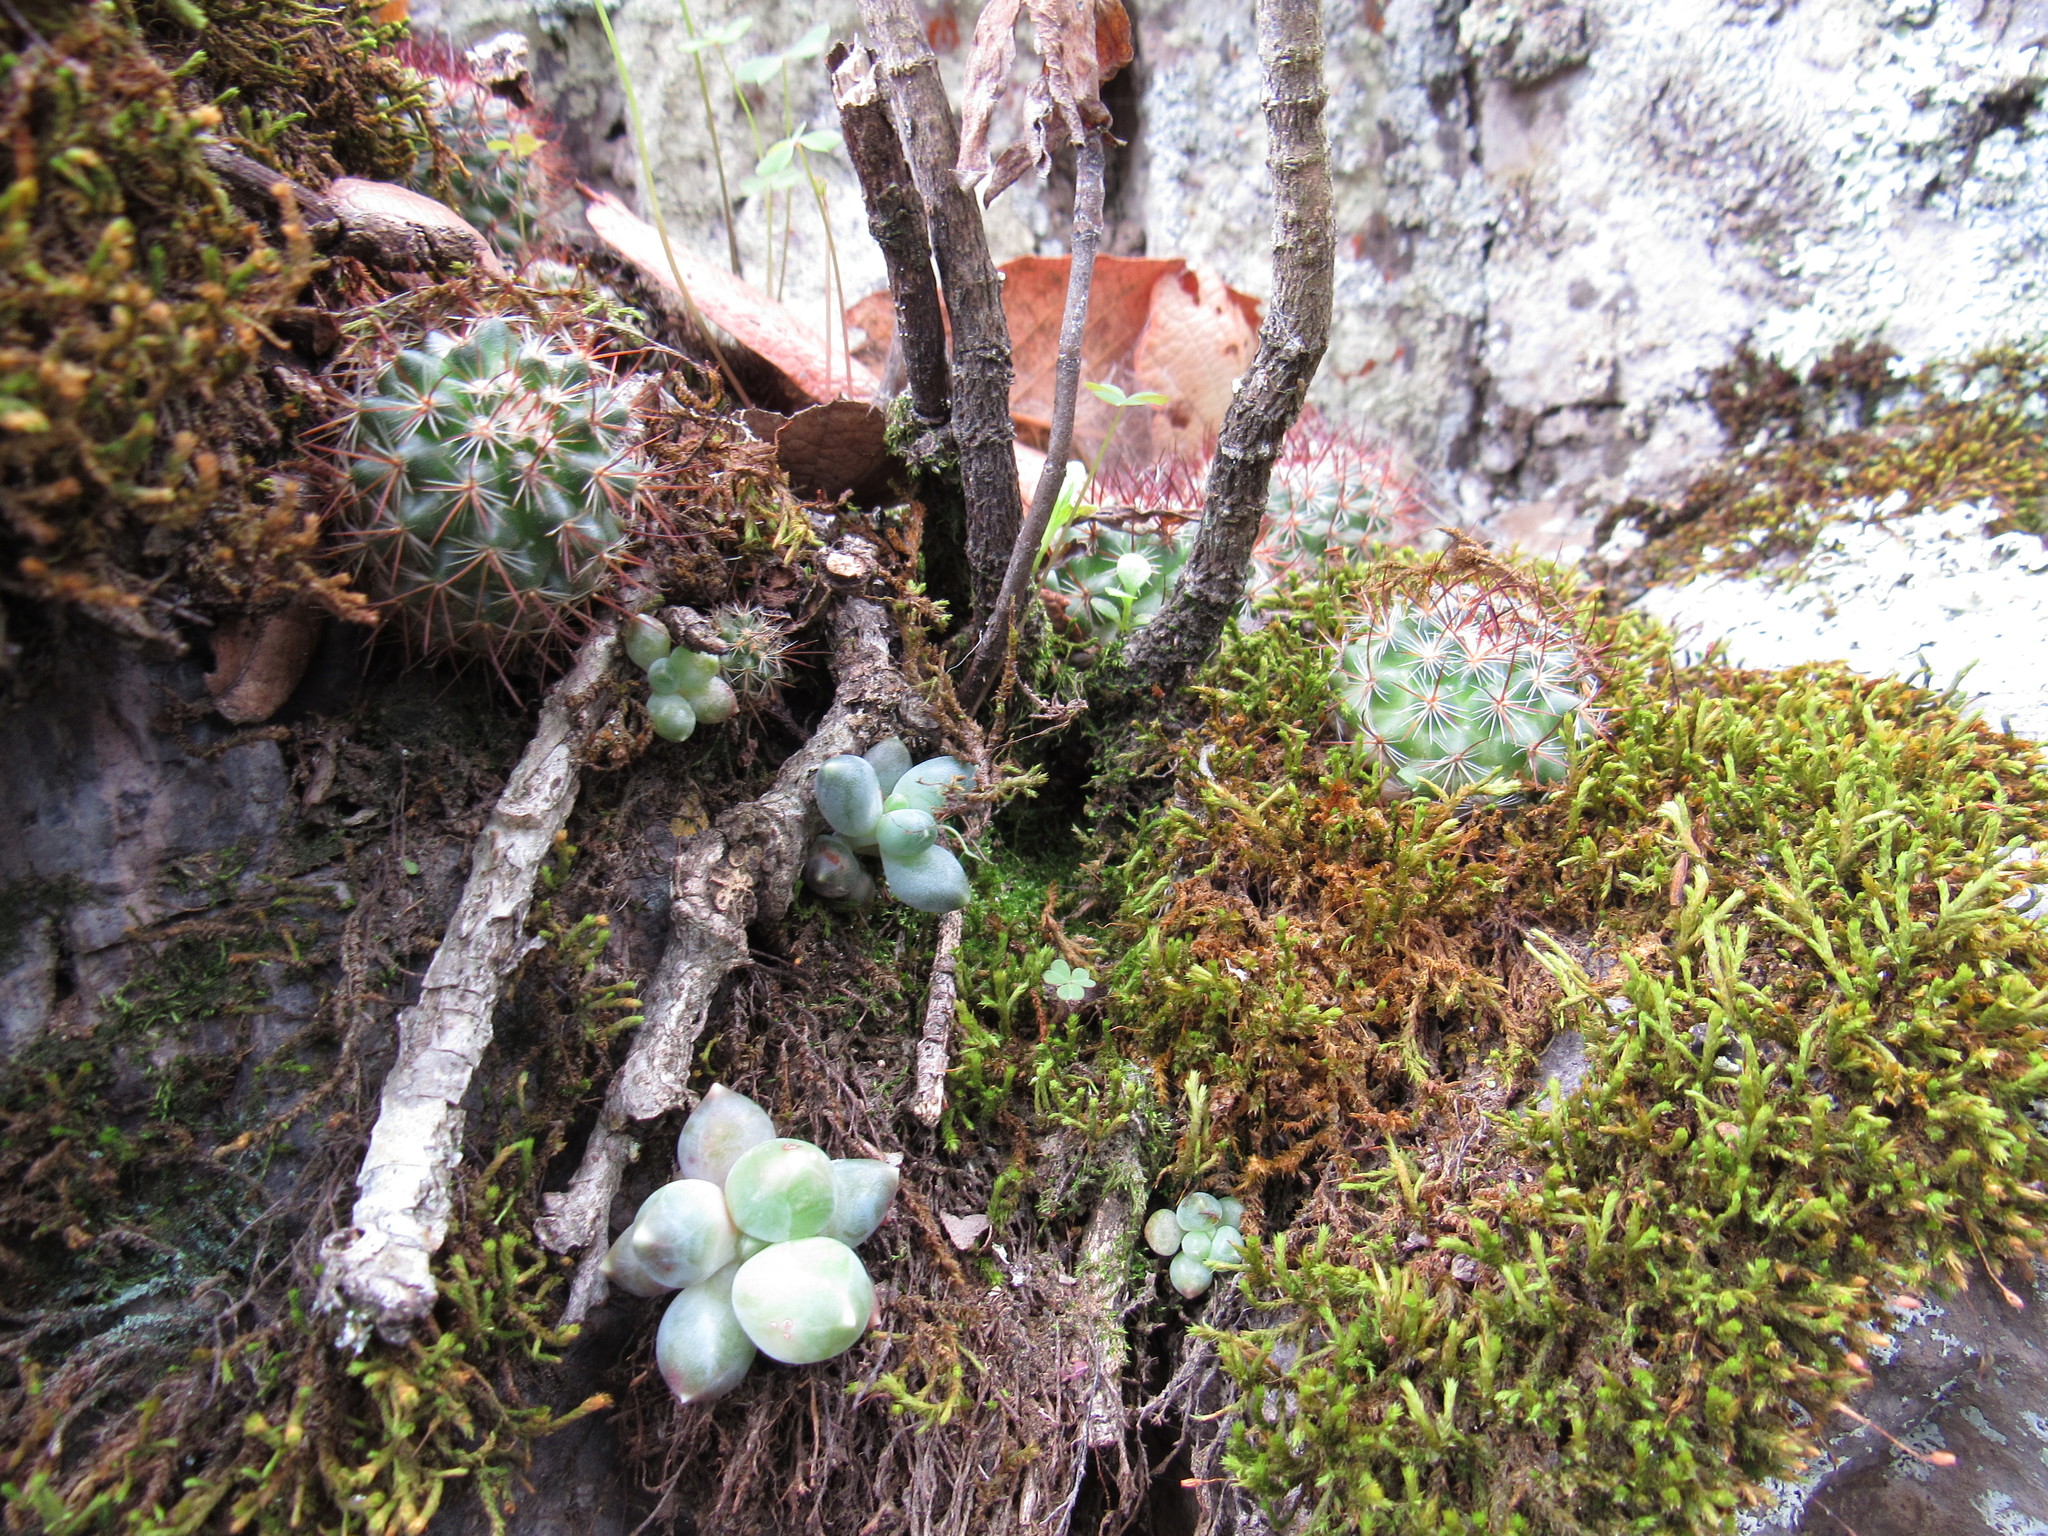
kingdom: Plantae
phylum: Tracheophyta
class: Magnoliopsida
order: Caryophyllales
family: Cactaceae
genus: Mammillaria
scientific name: Mammillaria rhodantha
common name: Rainbow pincushion
